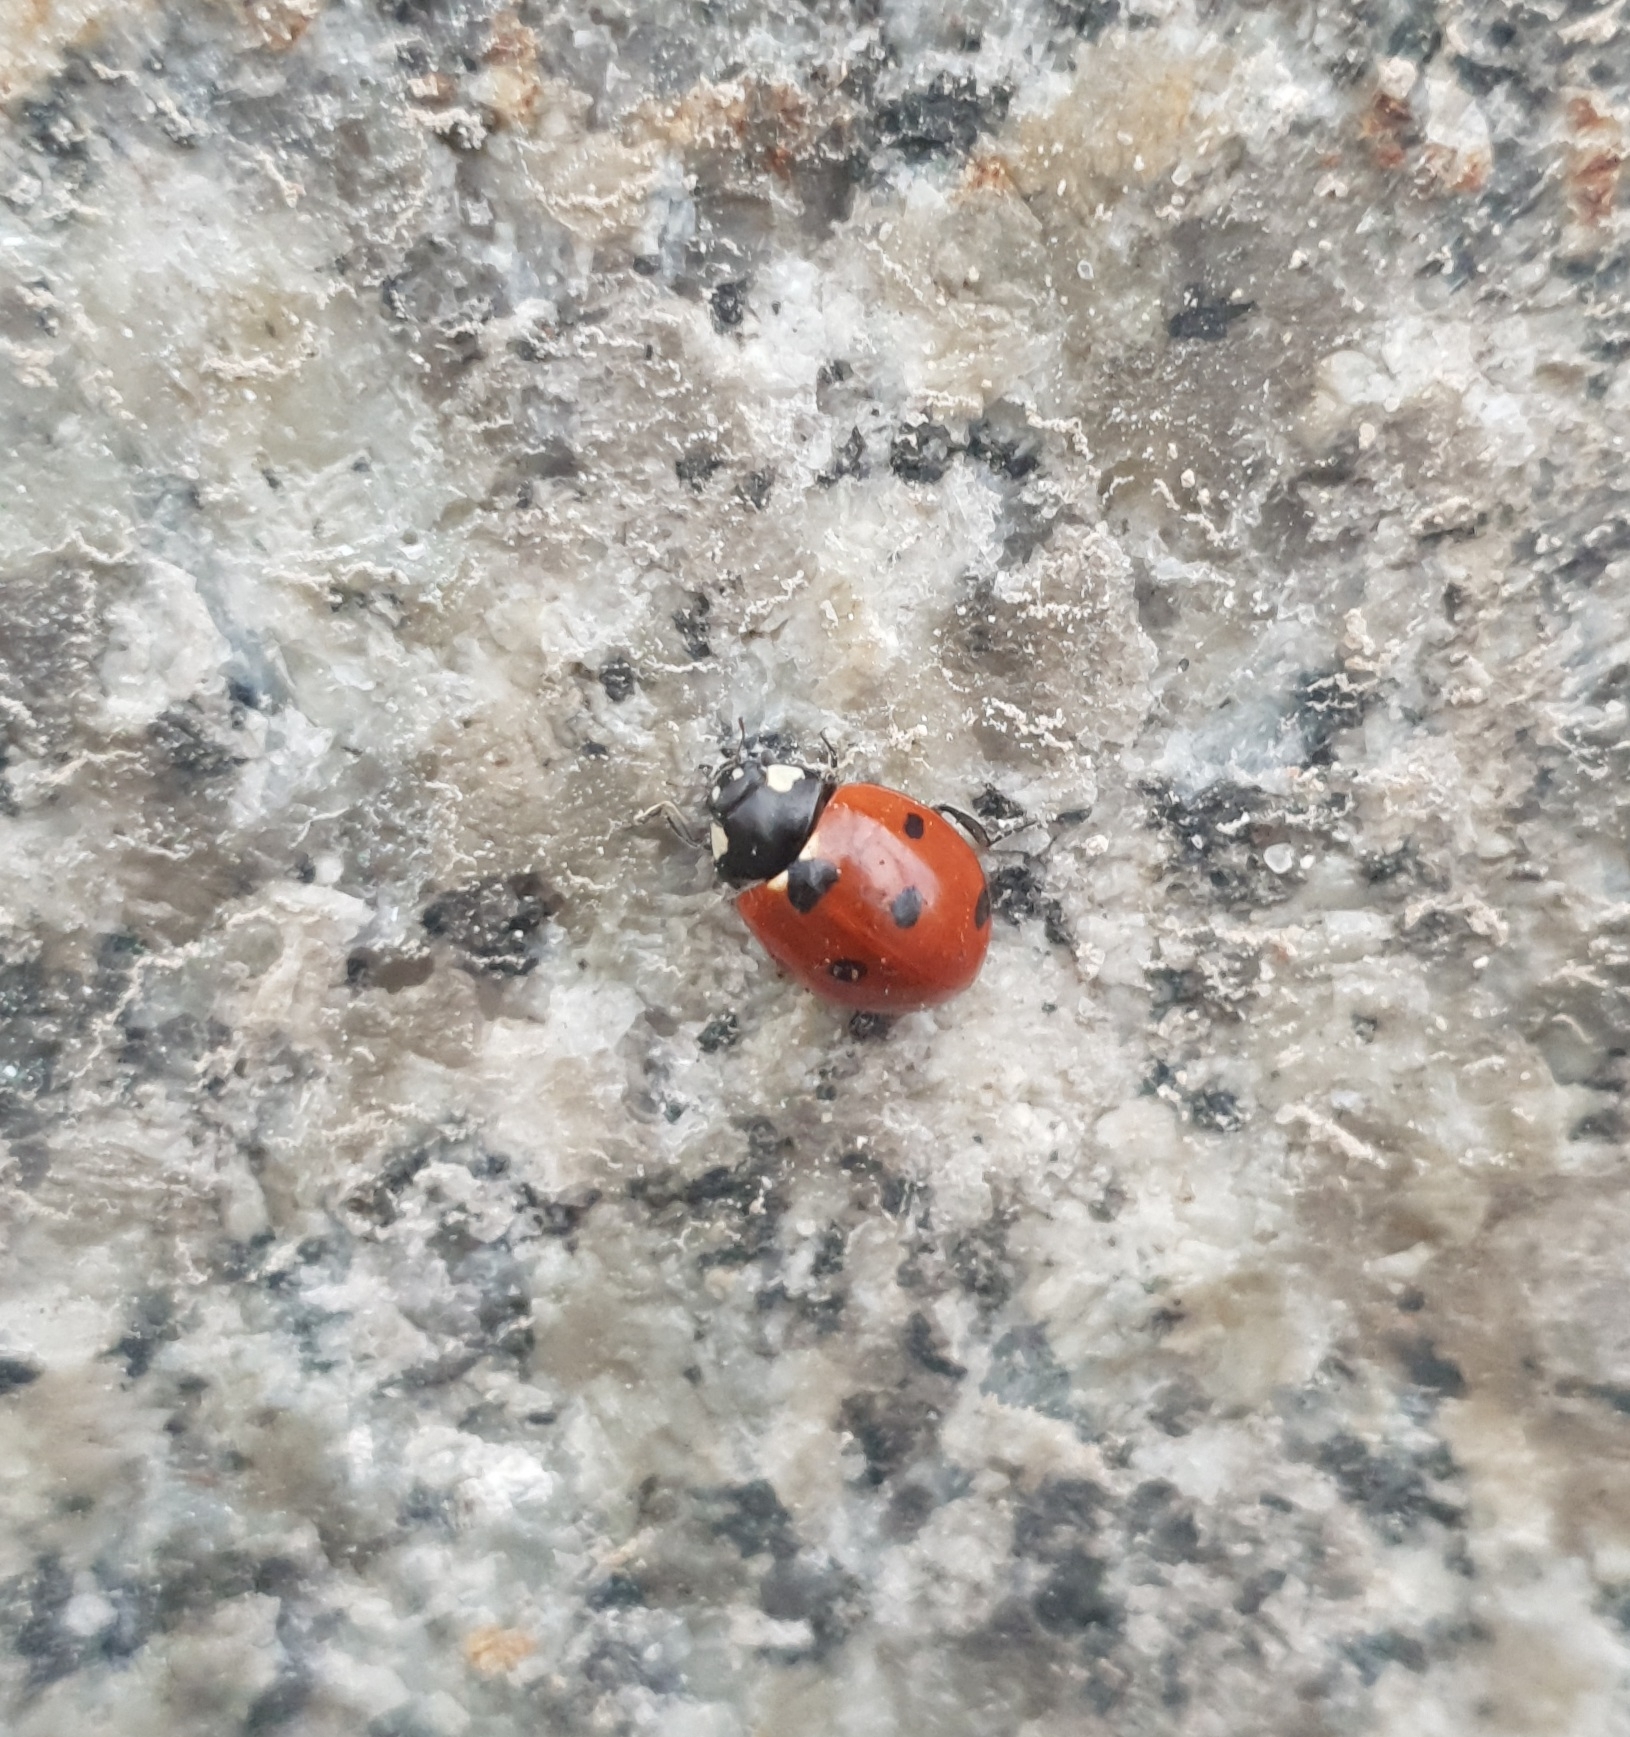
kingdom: Animalia
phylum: Arthropoda
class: Insecta
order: Coleoptera
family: Coccinellidae
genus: Coccinella
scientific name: Coccinella septempunctata
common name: Sevenspotted lady beetle
